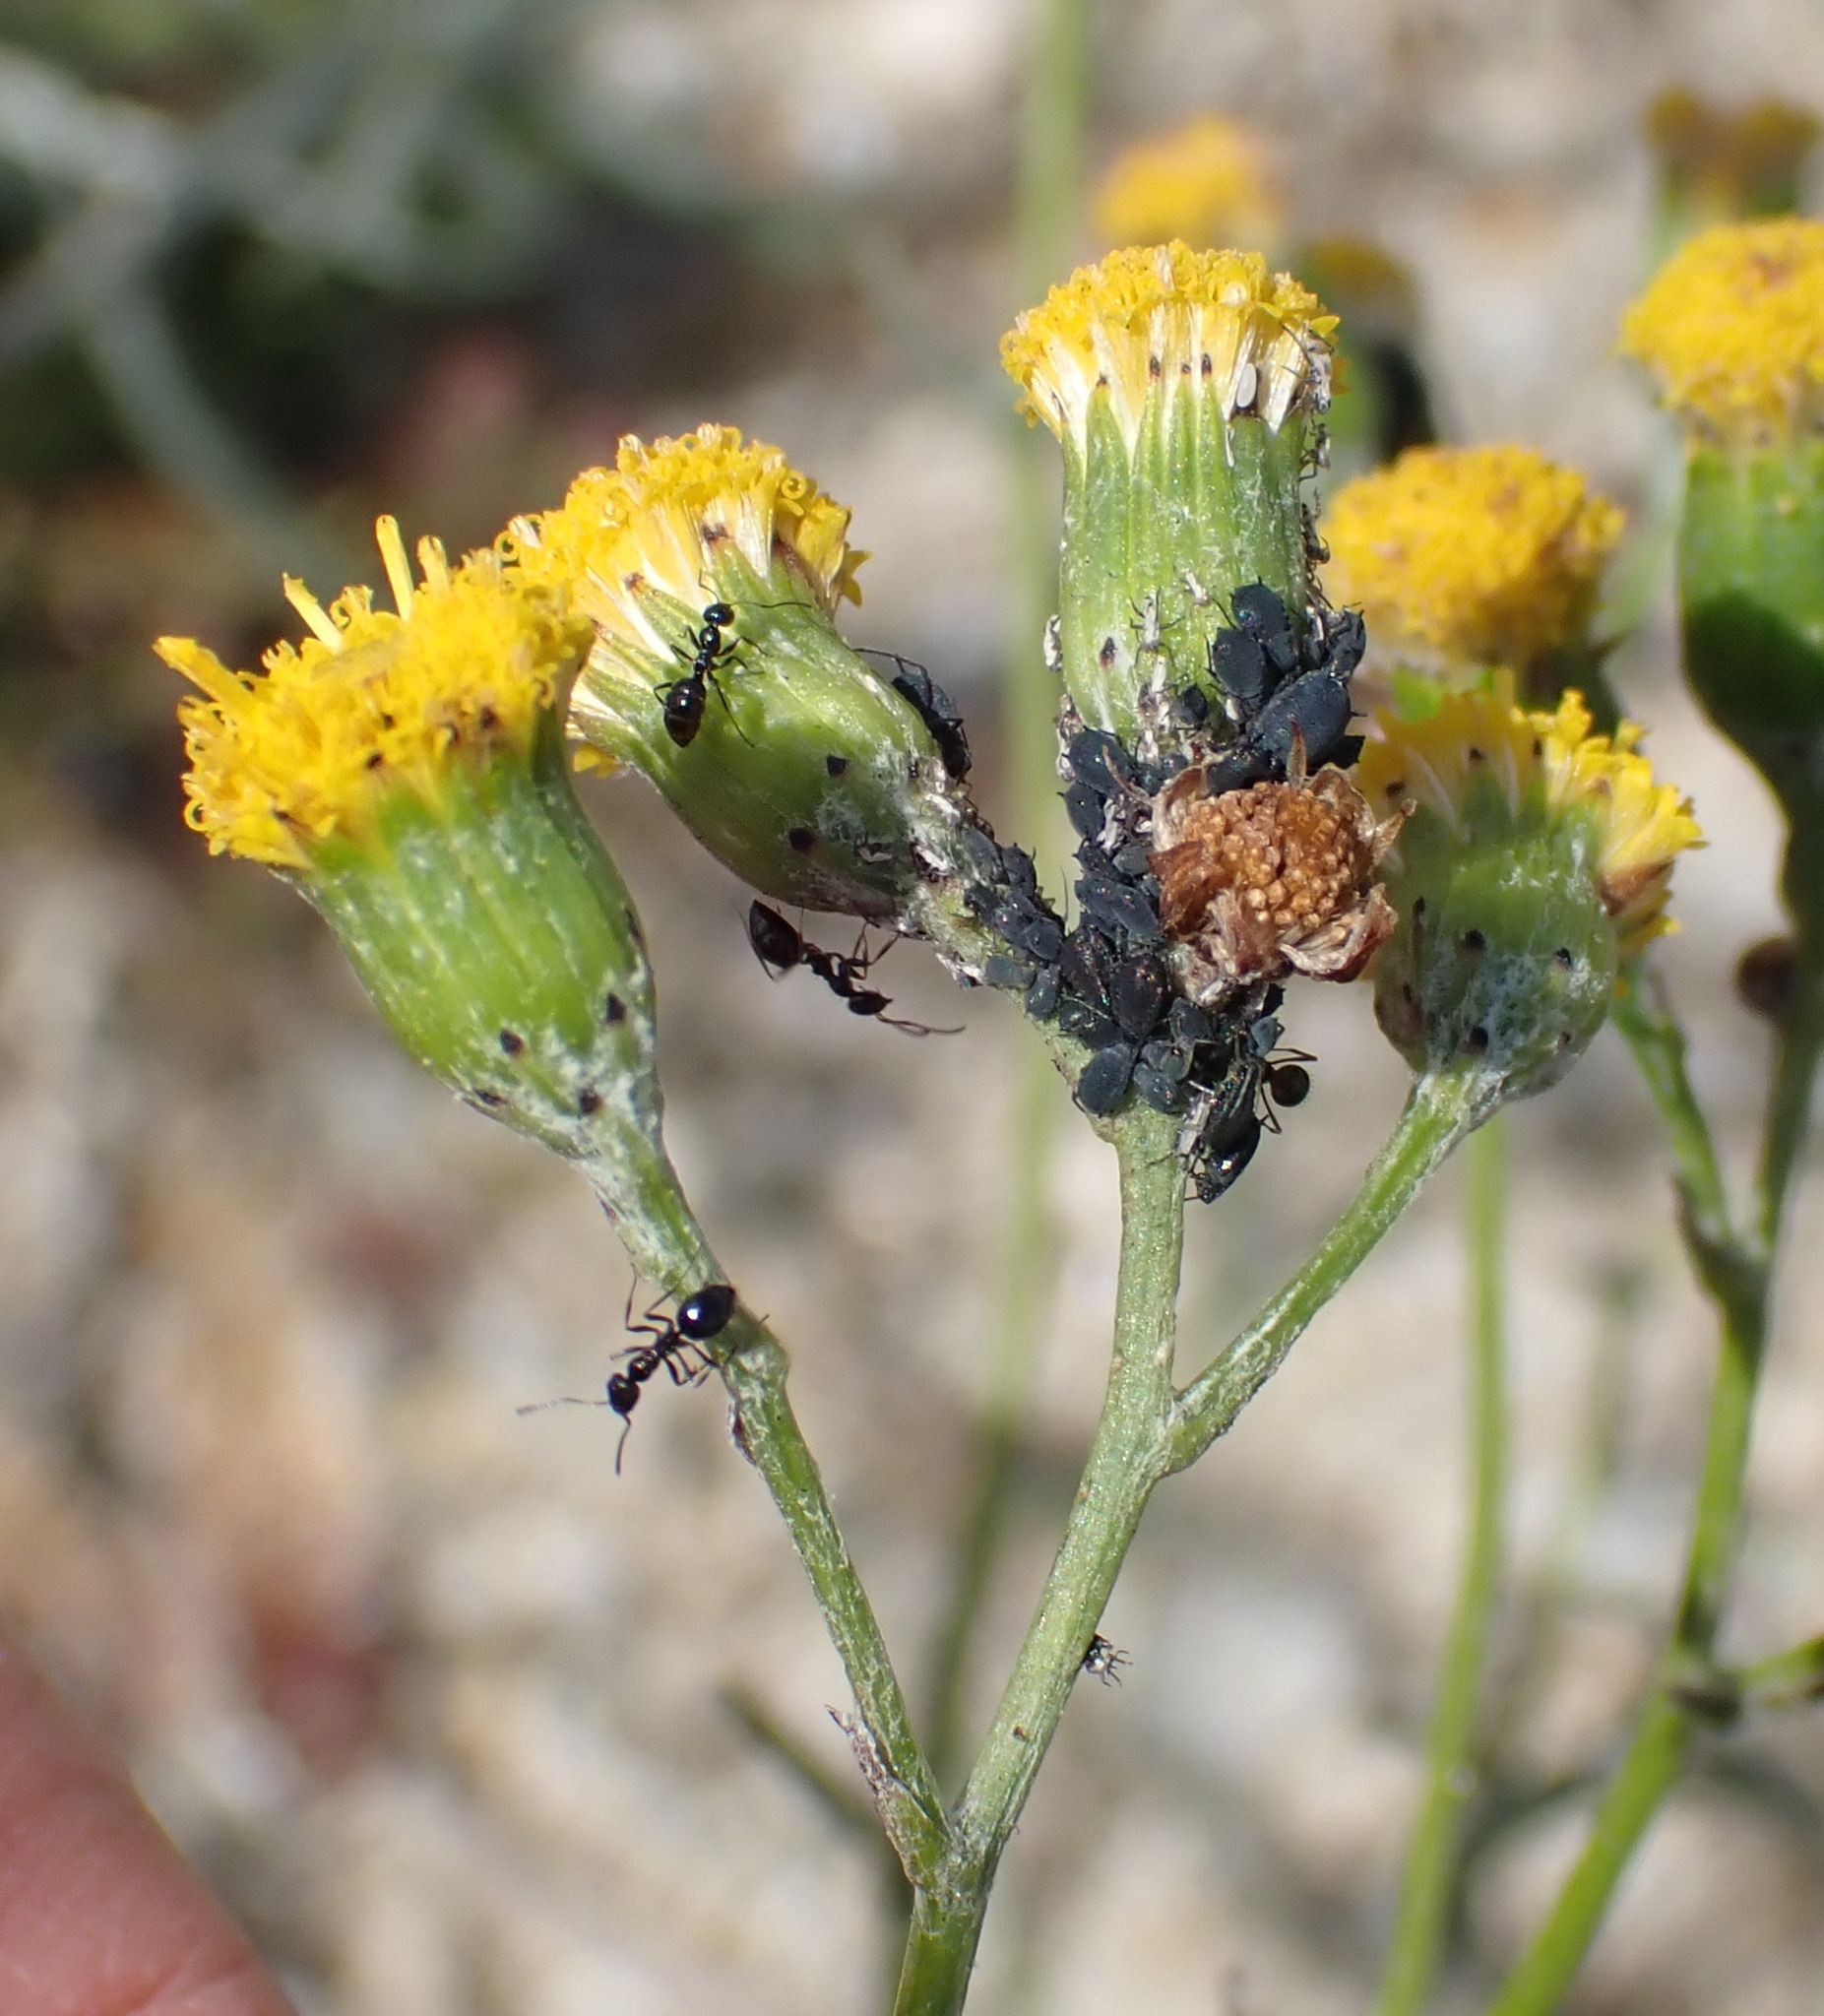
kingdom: Plantae
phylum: Tracheophyta
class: Magnoliopsida
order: Asterales
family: Asteraceae
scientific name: Asteraceae
